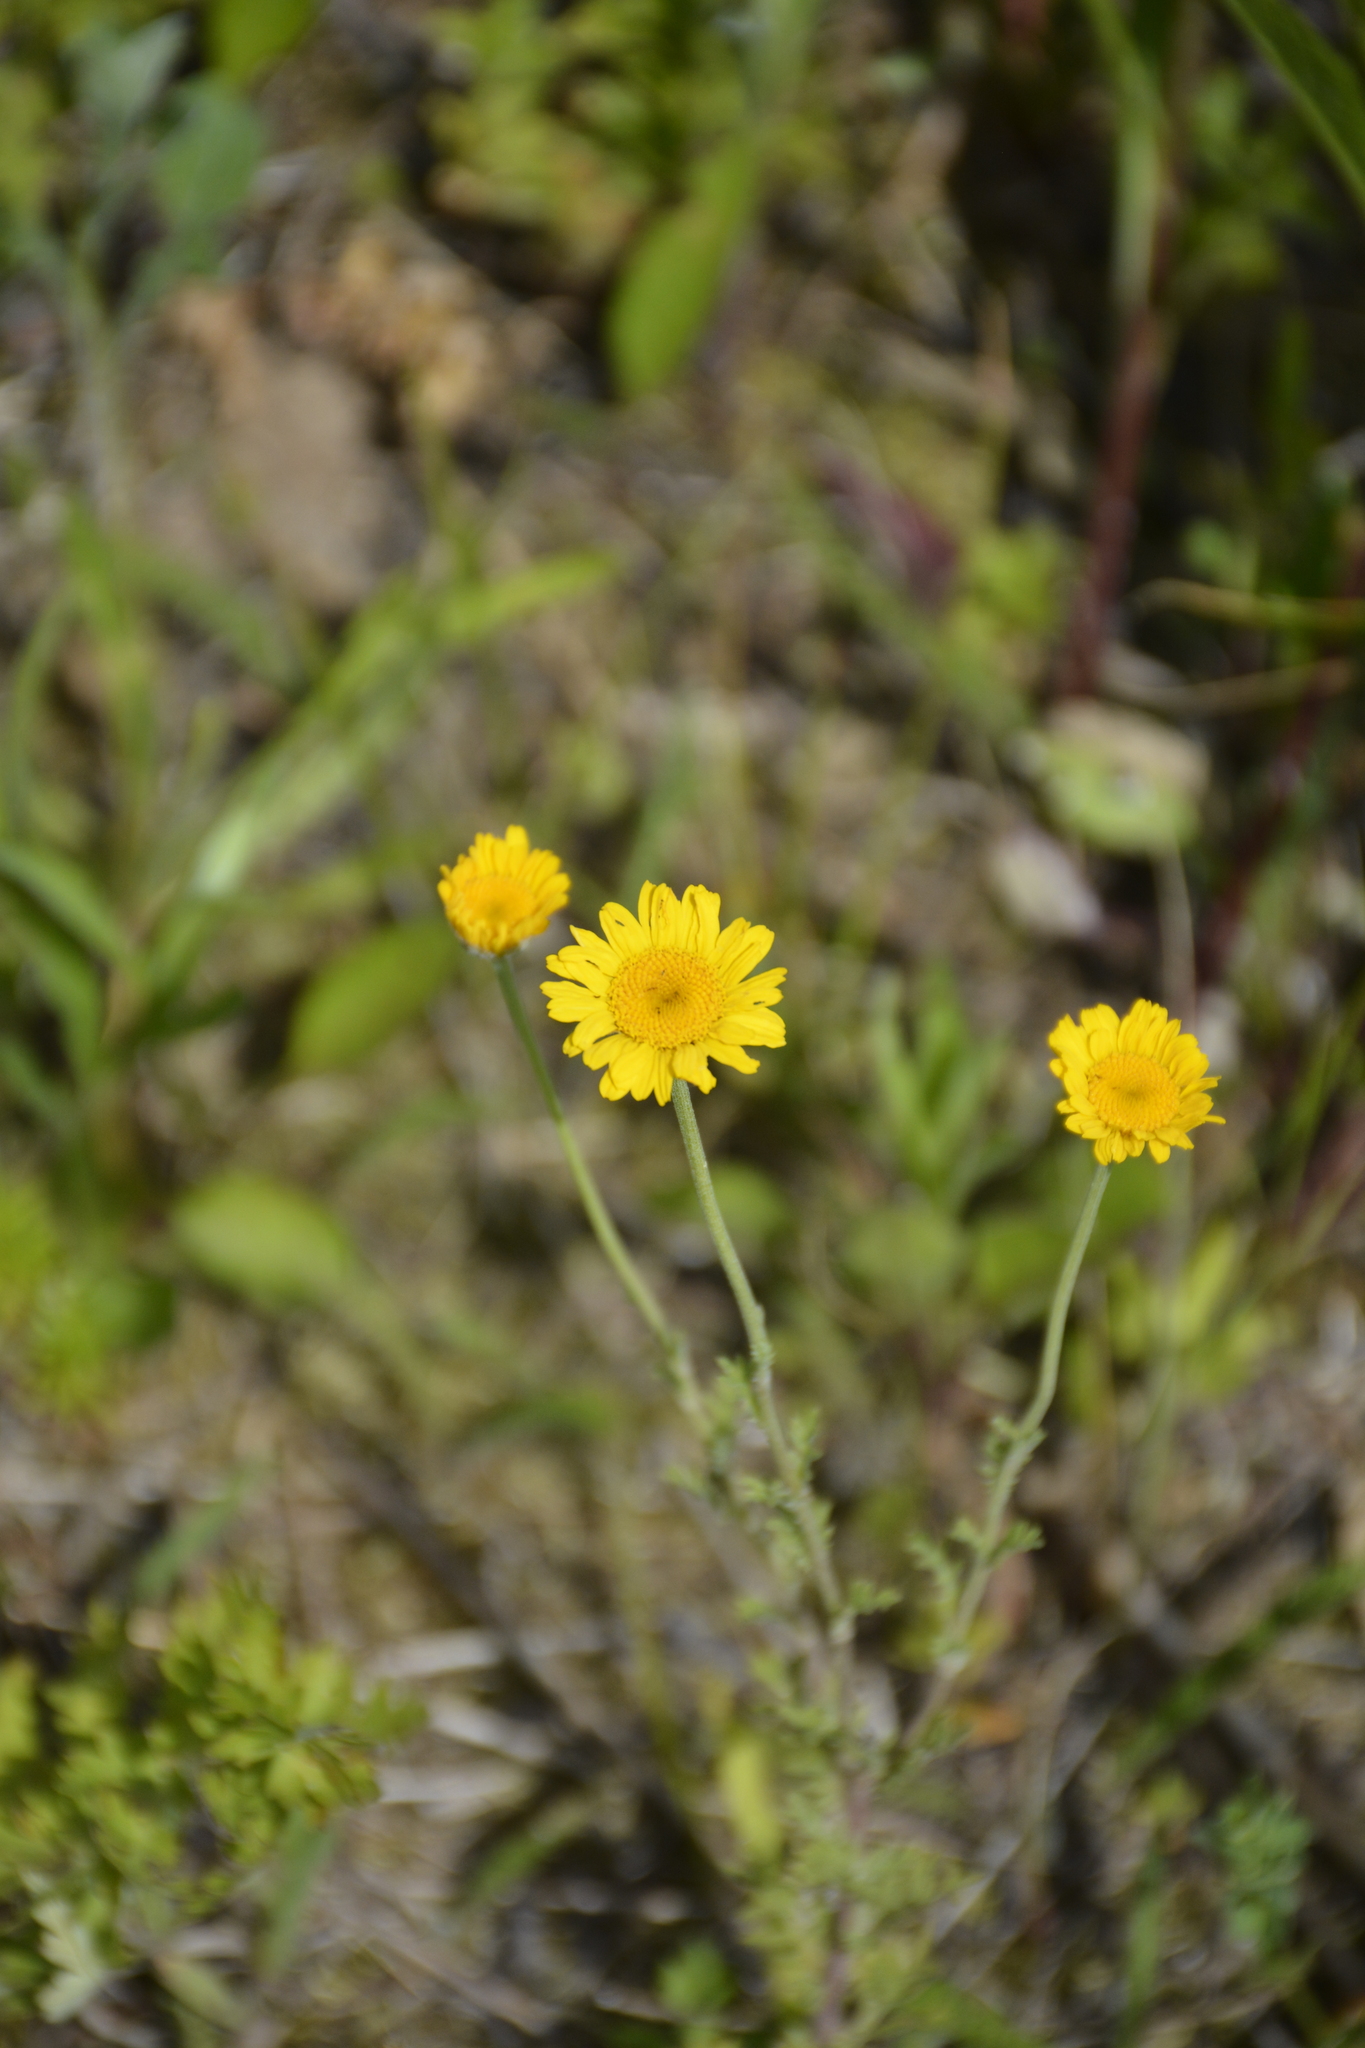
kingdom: Plantae
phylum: Tracheophyta
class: Magnoliopsida
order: Asterales
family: Asteraceae
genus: Cota
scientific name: Cota tinctoria
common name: Golden chamomile
